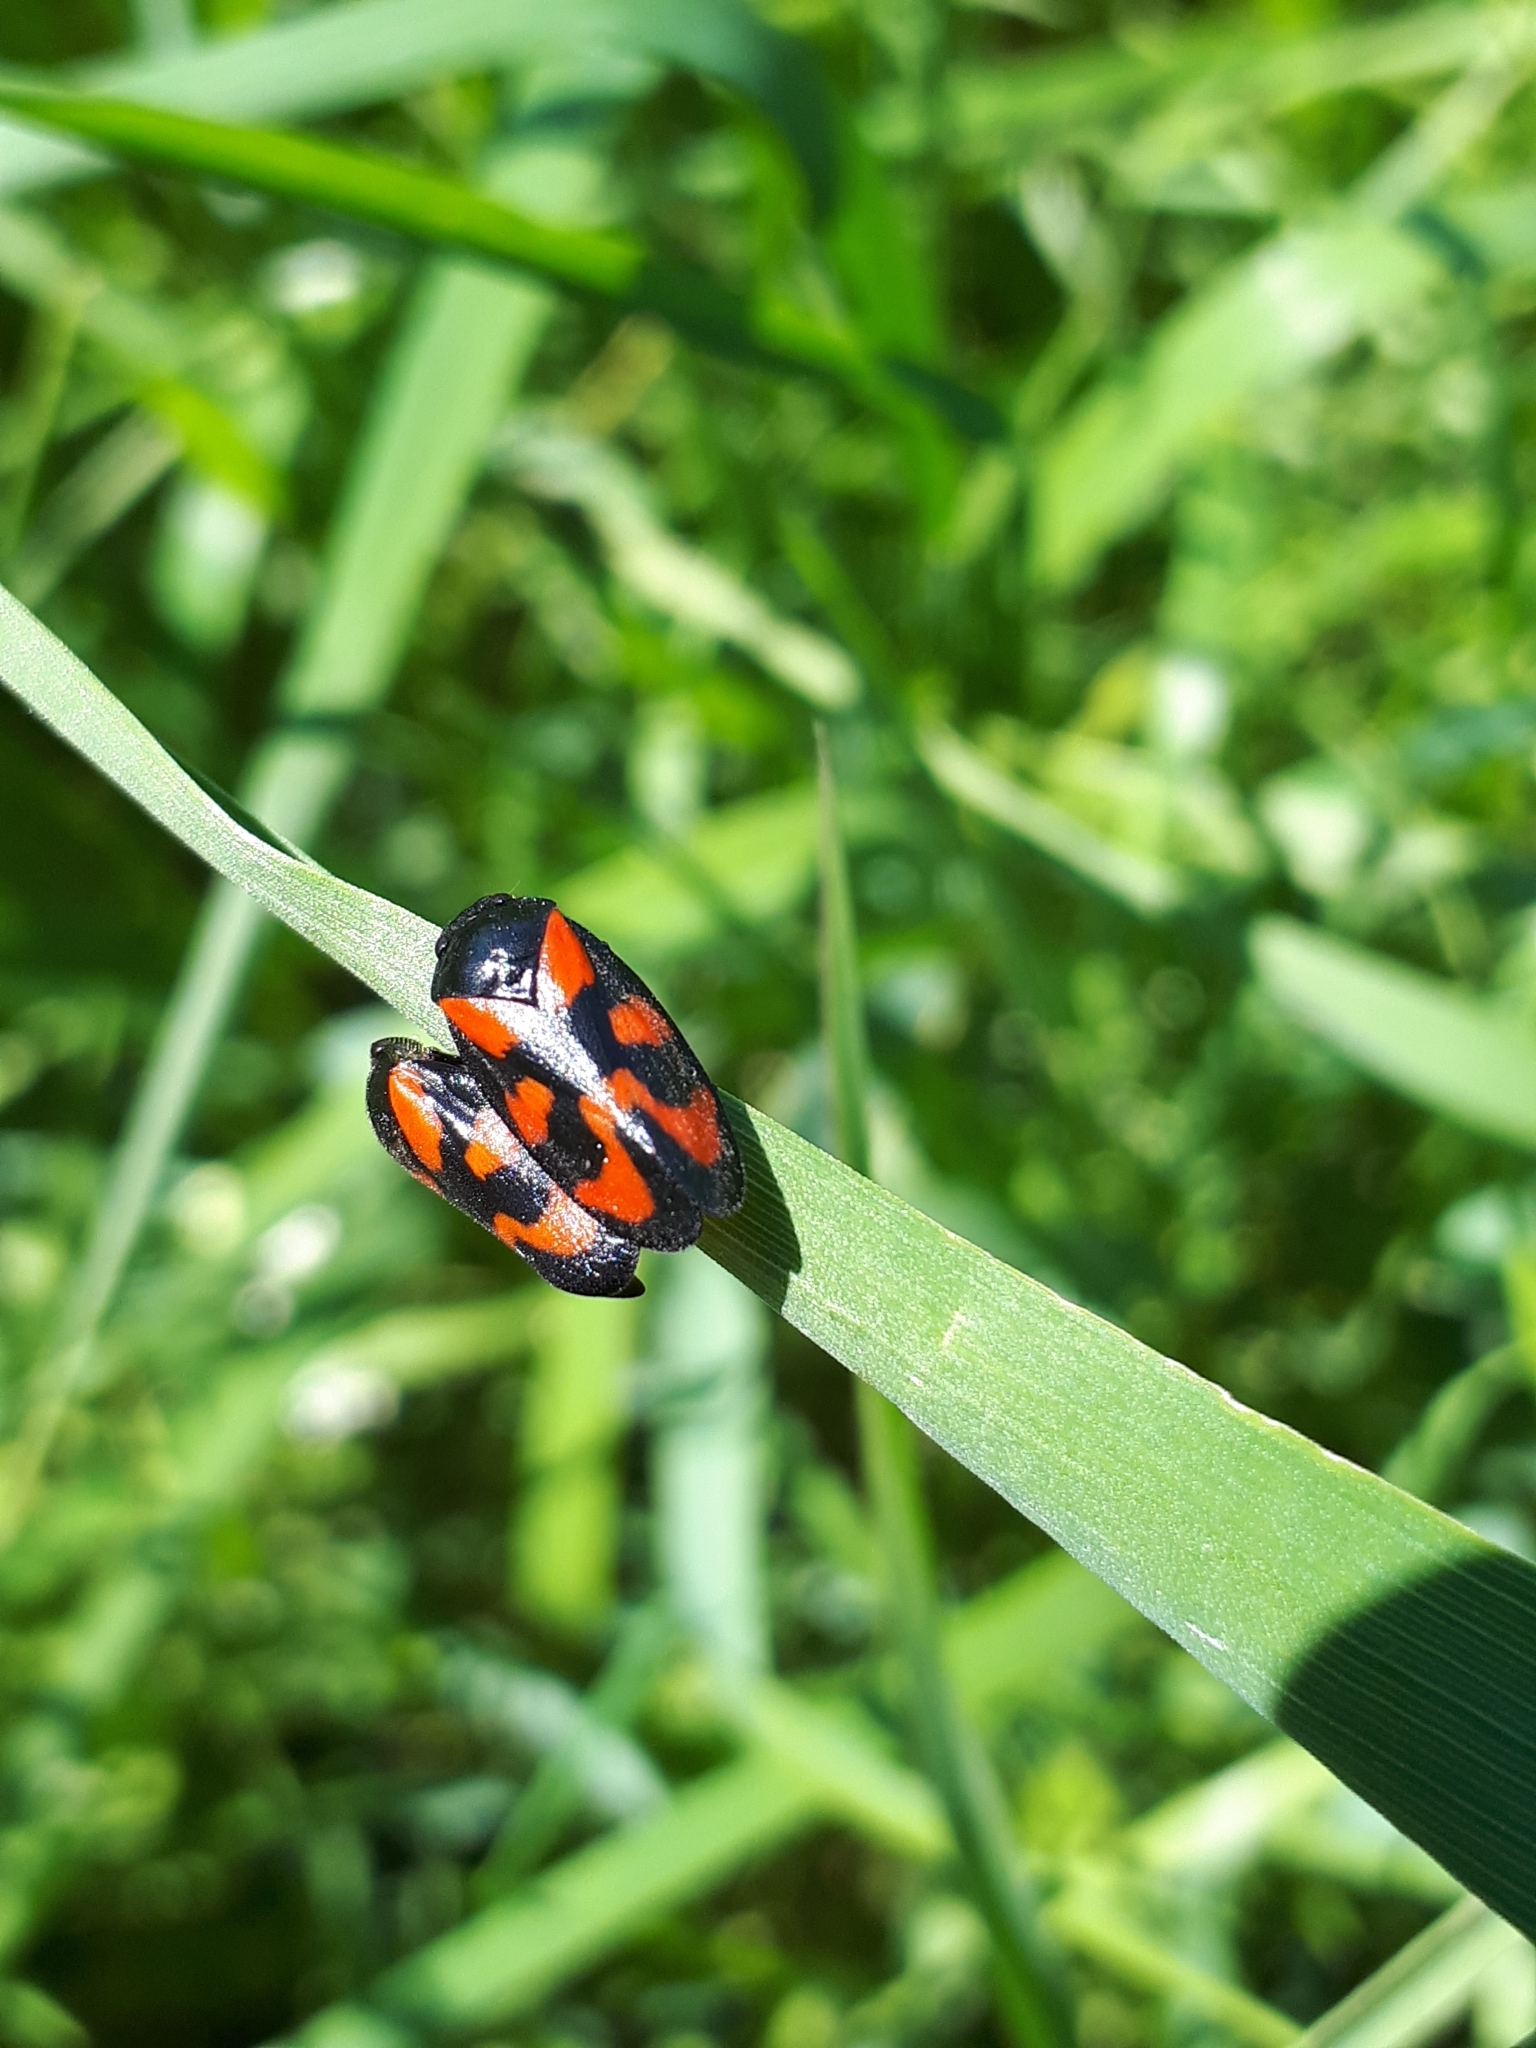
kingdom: Animalia
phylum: Arthropoda
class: Insecta
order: Hemiptera
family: Cercopidae
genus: Cercopis
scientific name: Cercopis vulnerata
